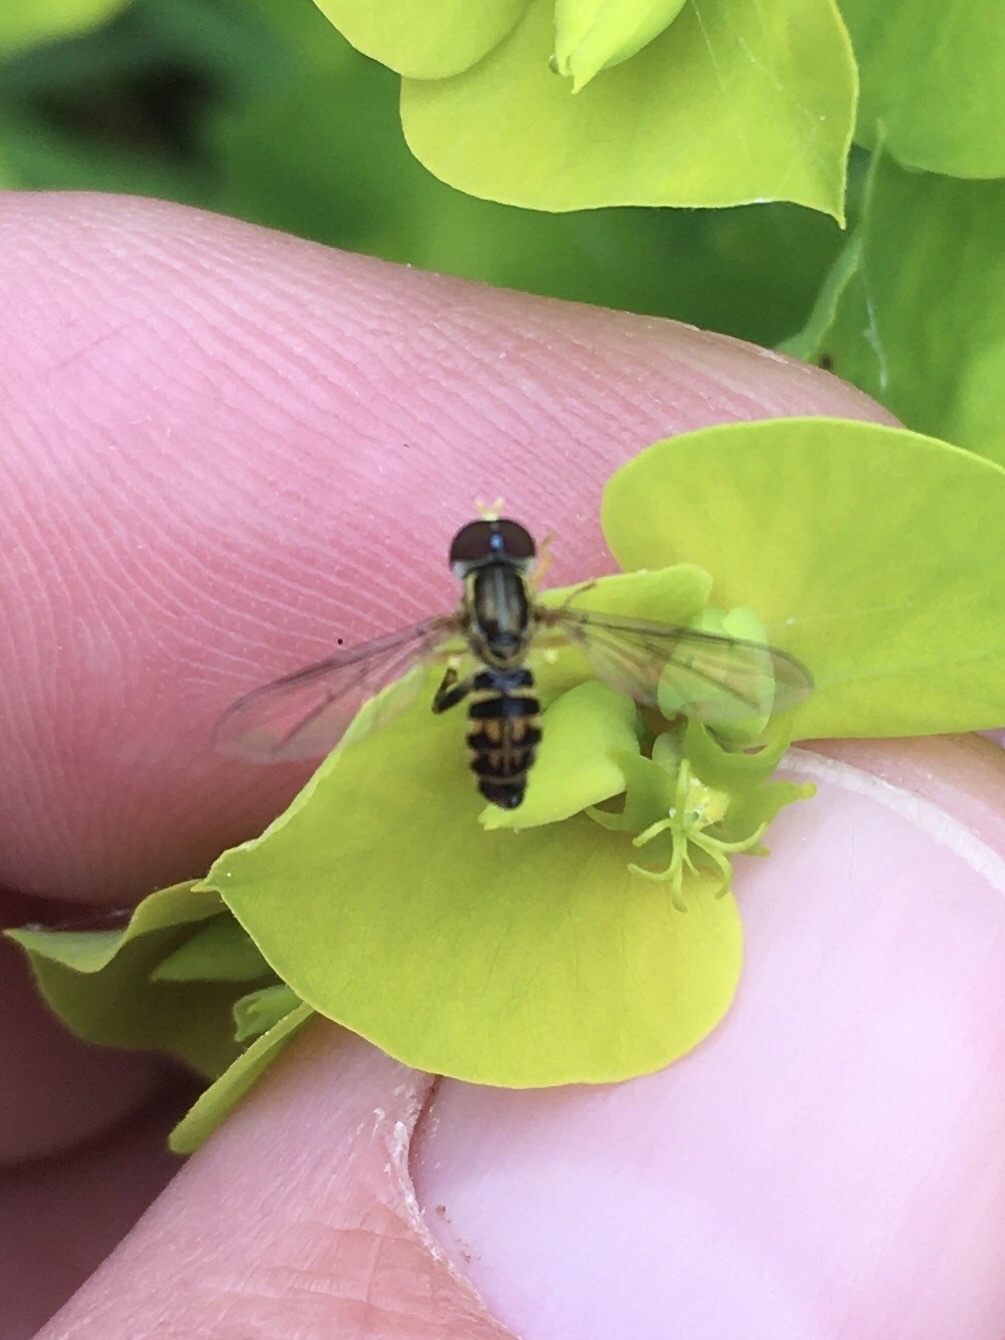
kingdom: Animalia
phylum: Arthropoda
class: Insecta
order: Diptera
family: Syrphidae
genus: Toxomerus
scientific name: Toxomerus geminatus
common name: Eastern calligrapher
